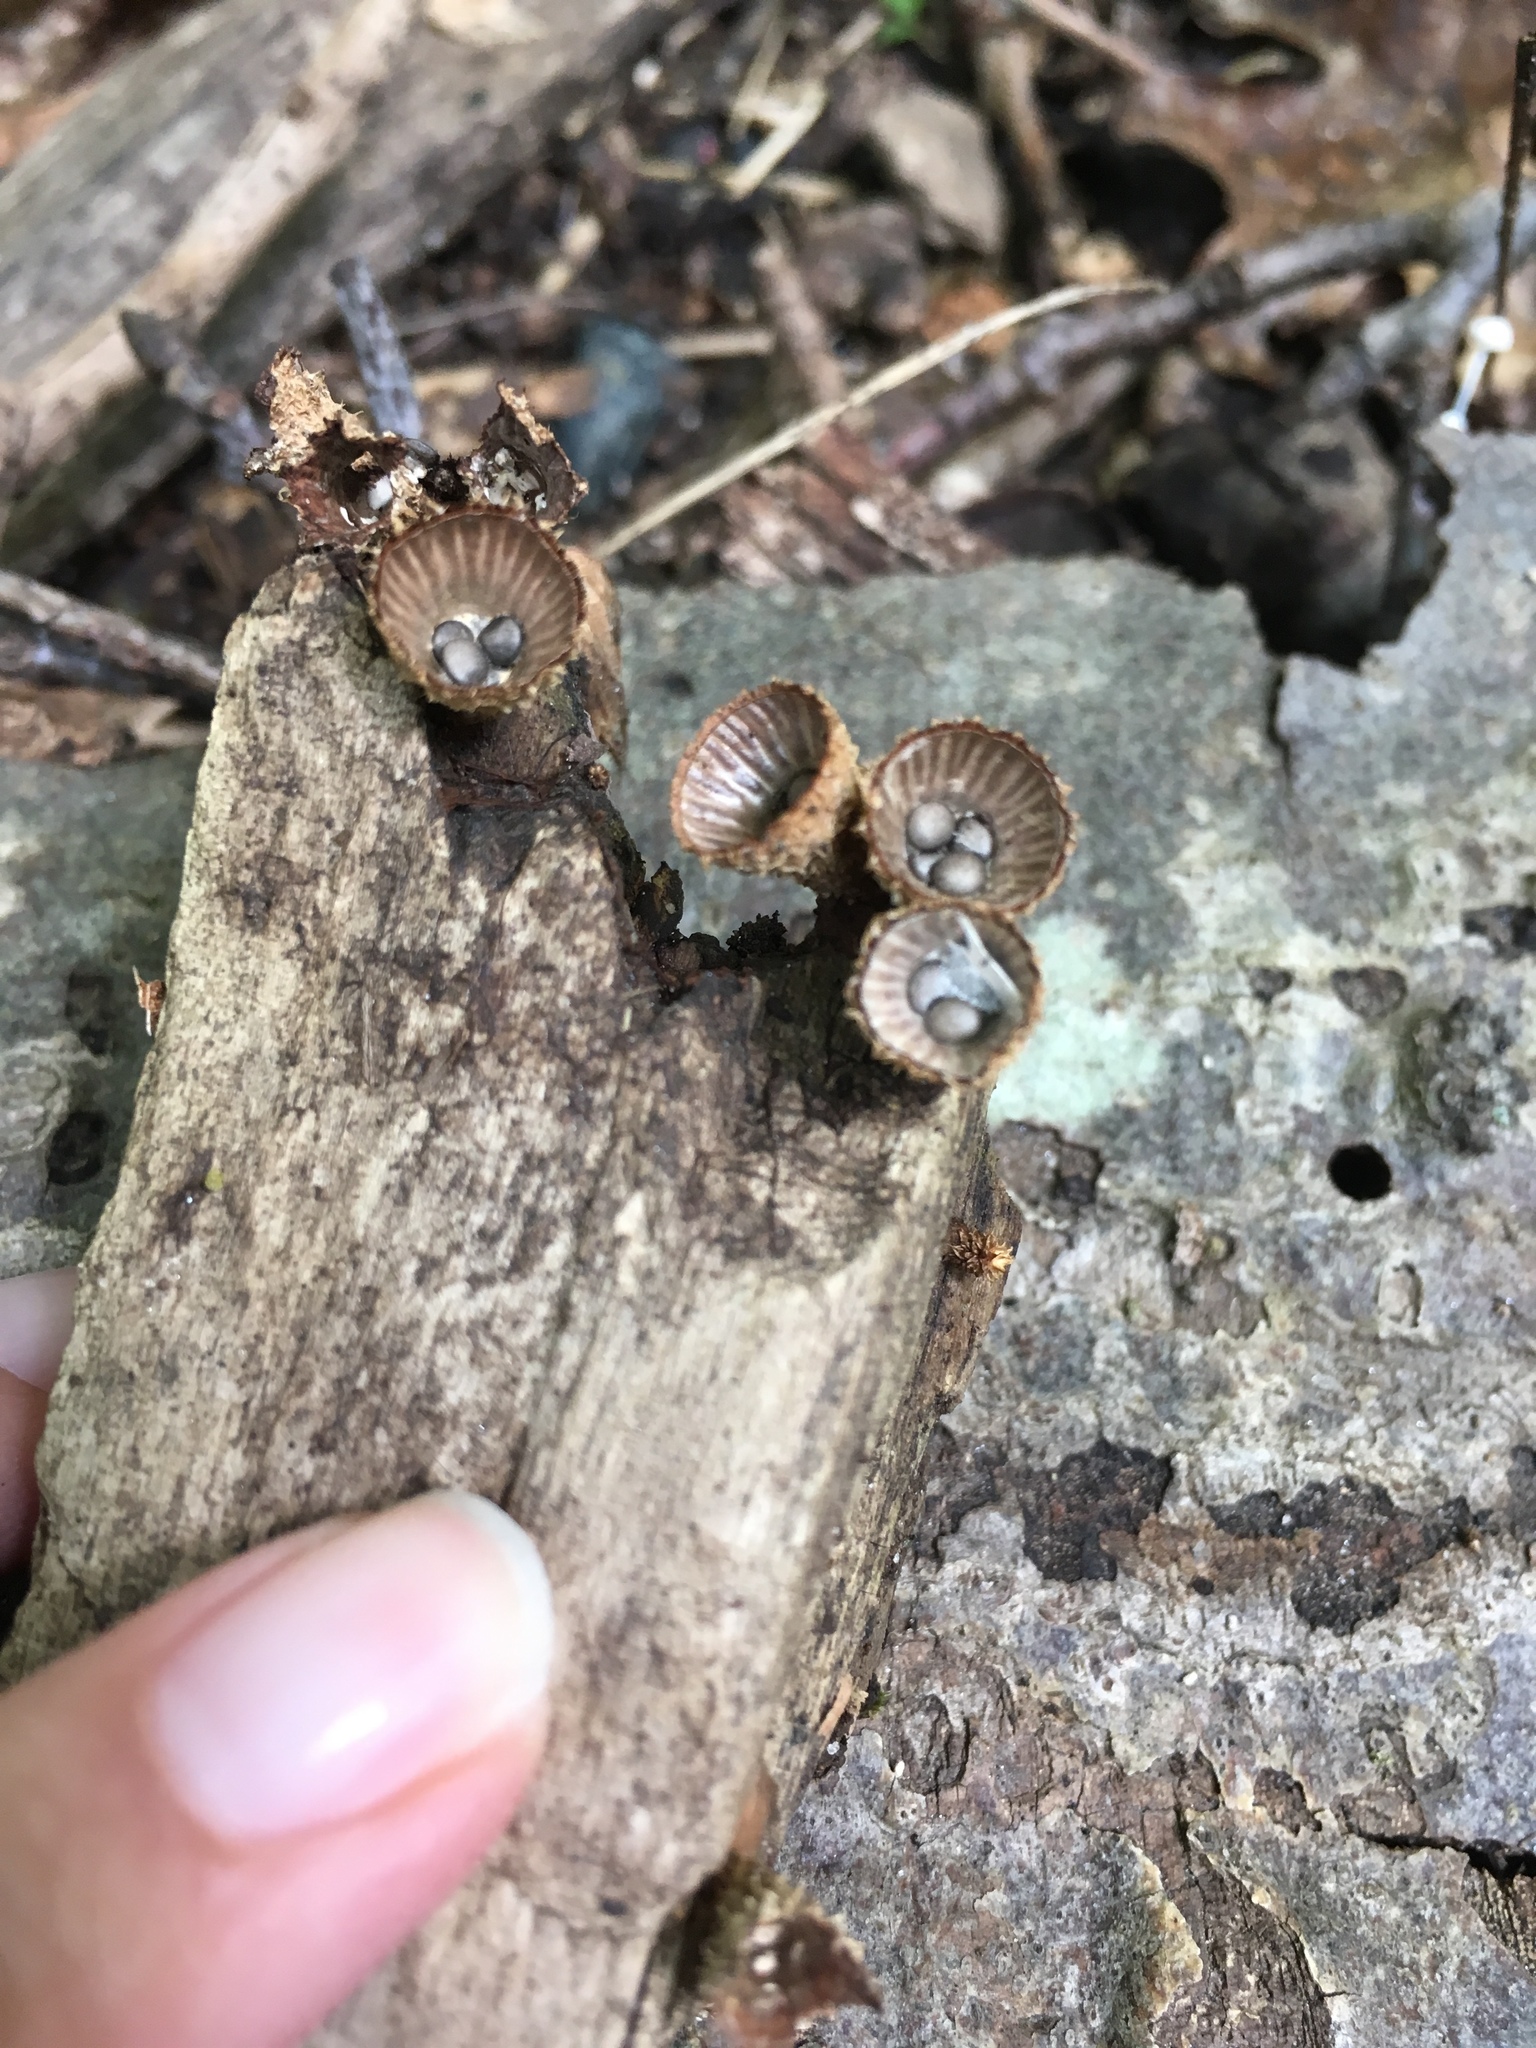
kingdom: Fungi
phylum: Basidiomycota
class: Agaricomycetes
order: Agaricales
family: Agaricaceae
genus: Cyathus
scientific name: Cyathus striatus
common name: Fluted bird's nest
